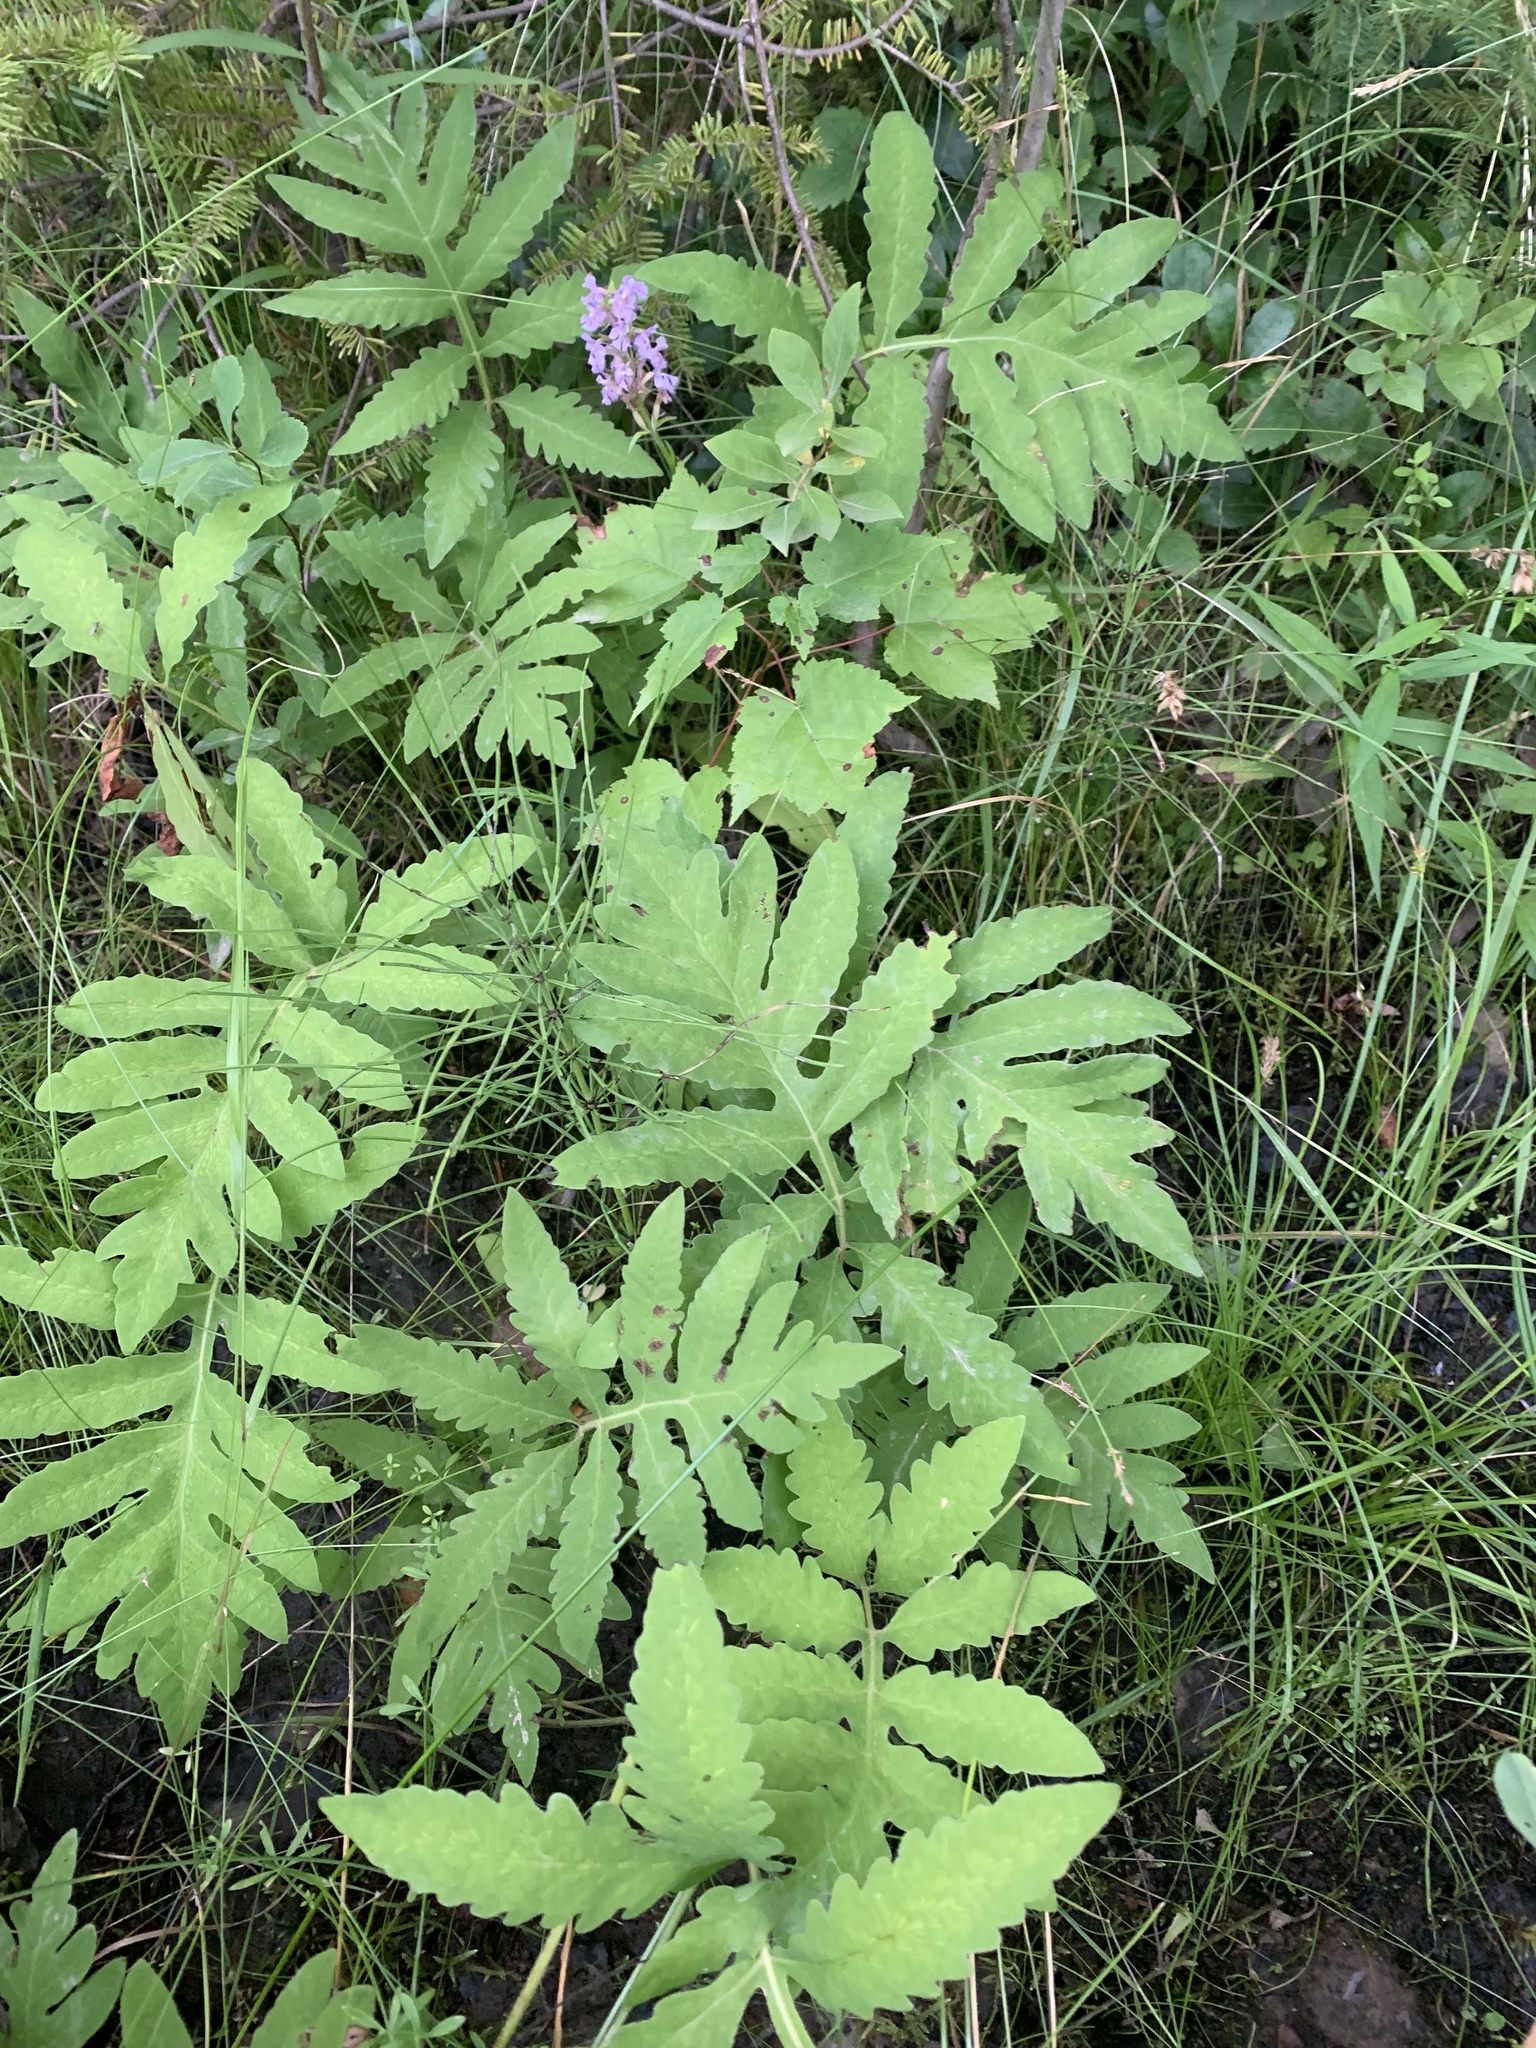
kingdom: Plantae
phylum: Tracheophyta
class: Polypodiopsida
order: Polypodiales
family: Onocleaceae
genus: Onoclea
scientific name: Onoclea sensibilis
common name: Sensitive fern
